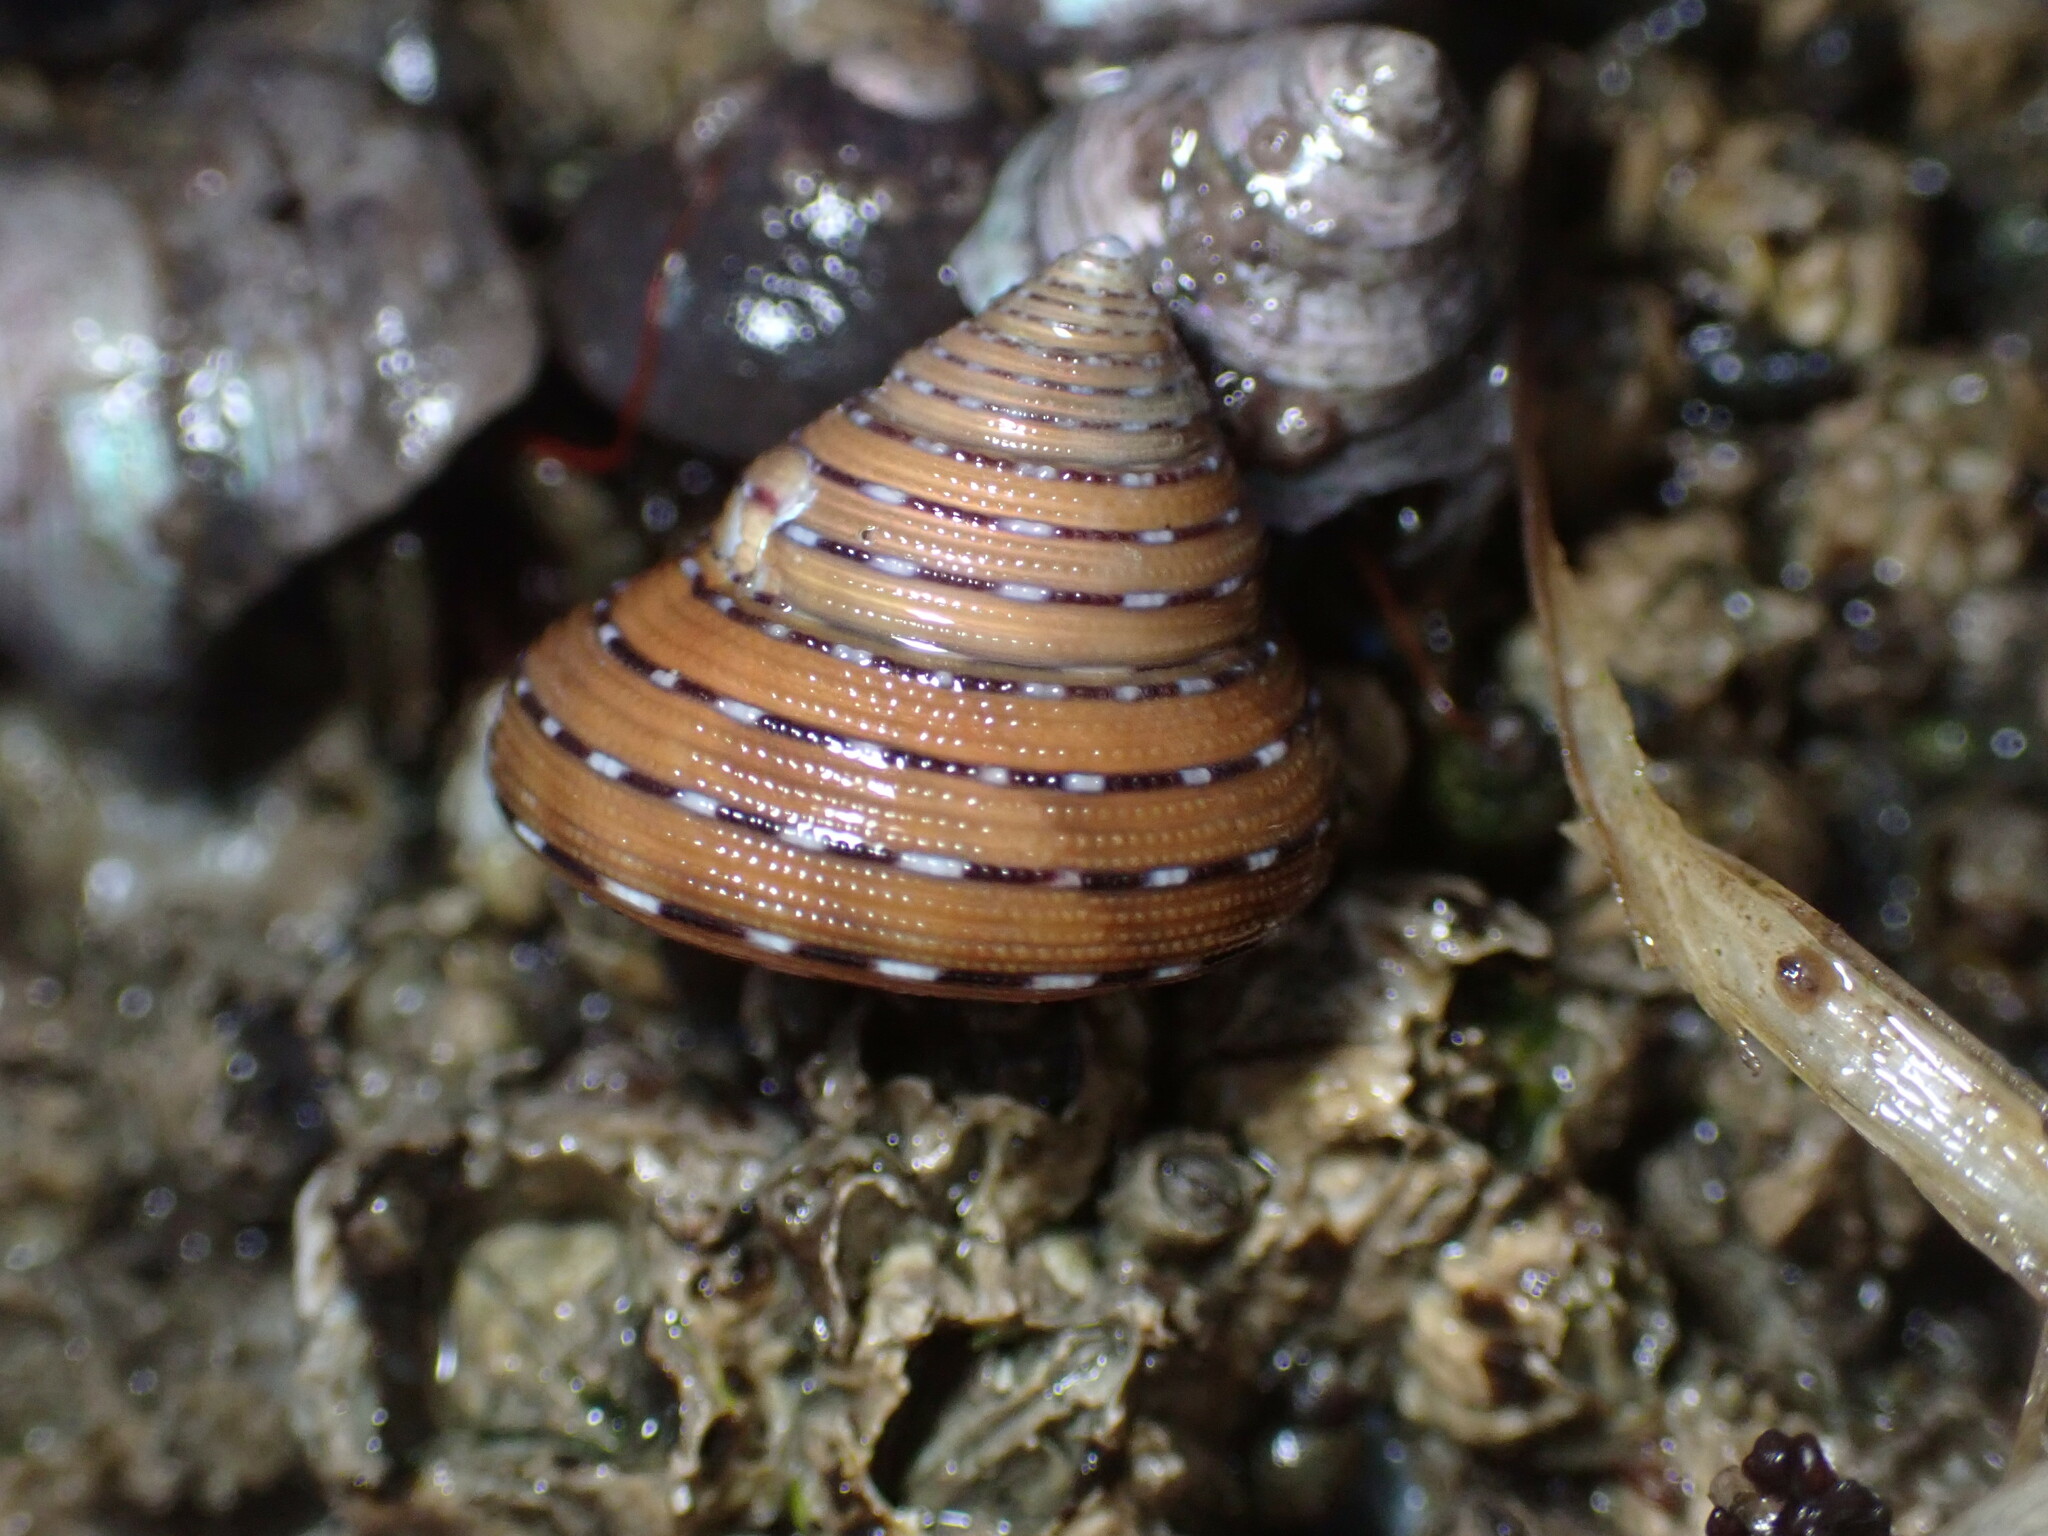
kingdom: Animalia
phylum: Mollusca
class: Gastropoda
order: Trochida
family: Calliostomatidae
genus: Calliostoma
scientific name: Calliostoma tricolor
